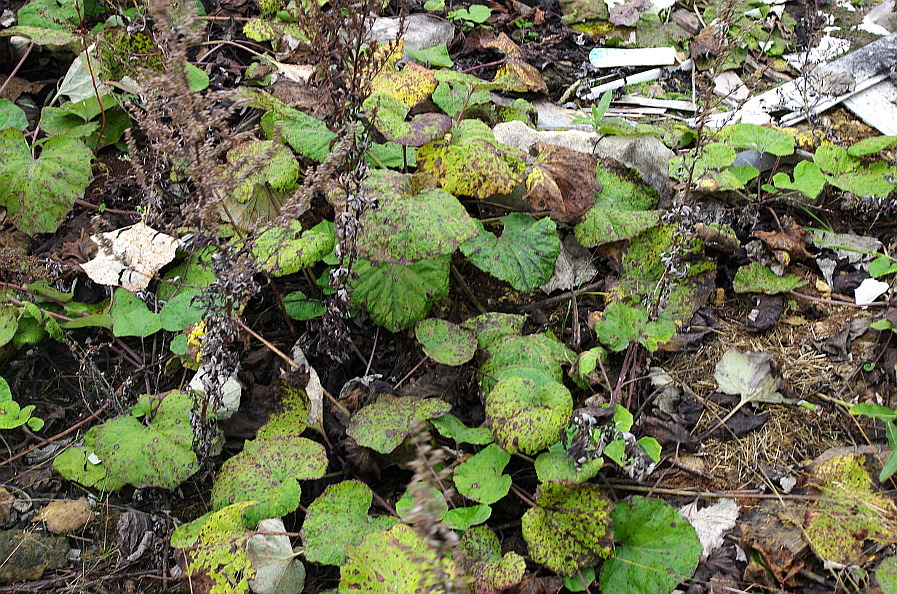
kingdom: Plantae
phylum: Tracheophyta
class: Magnoliopsida
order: Asterales
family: Asteraceae
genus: Tussilago
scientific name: Tussilago farfara
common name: Coltsfoot
